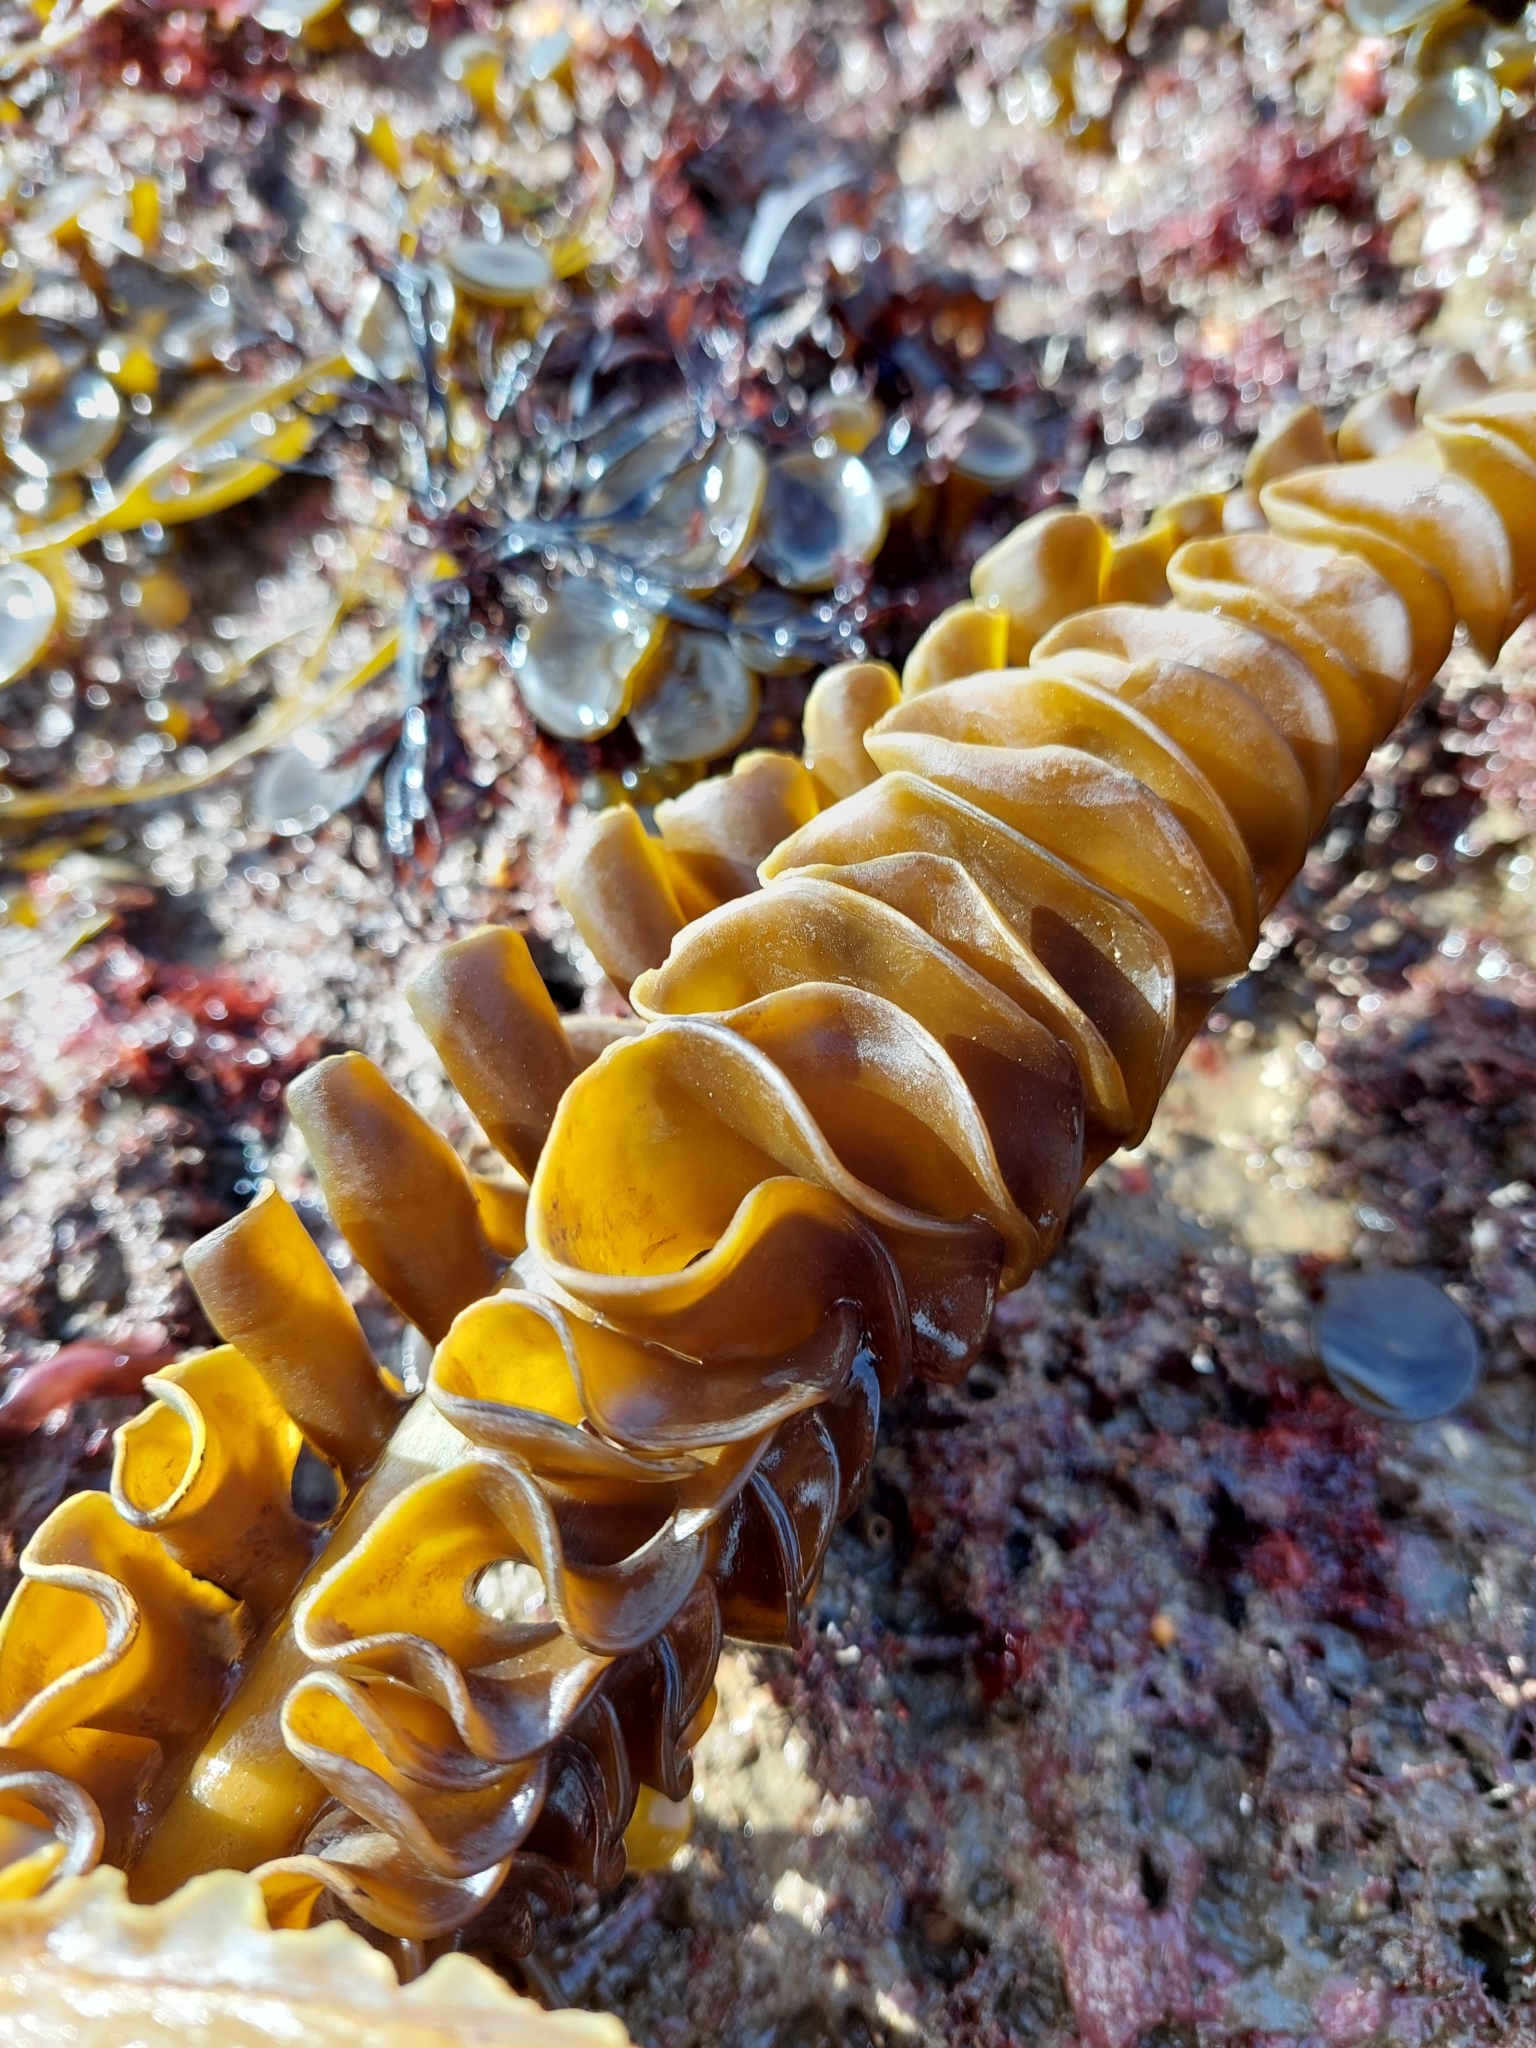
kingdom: Chromista
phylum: Ochrophyta
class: Phaeophyceae
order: Laminariales
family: Alariaceae
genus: Undaria
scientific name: Undaria pinnatifida
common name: Asian kelp
